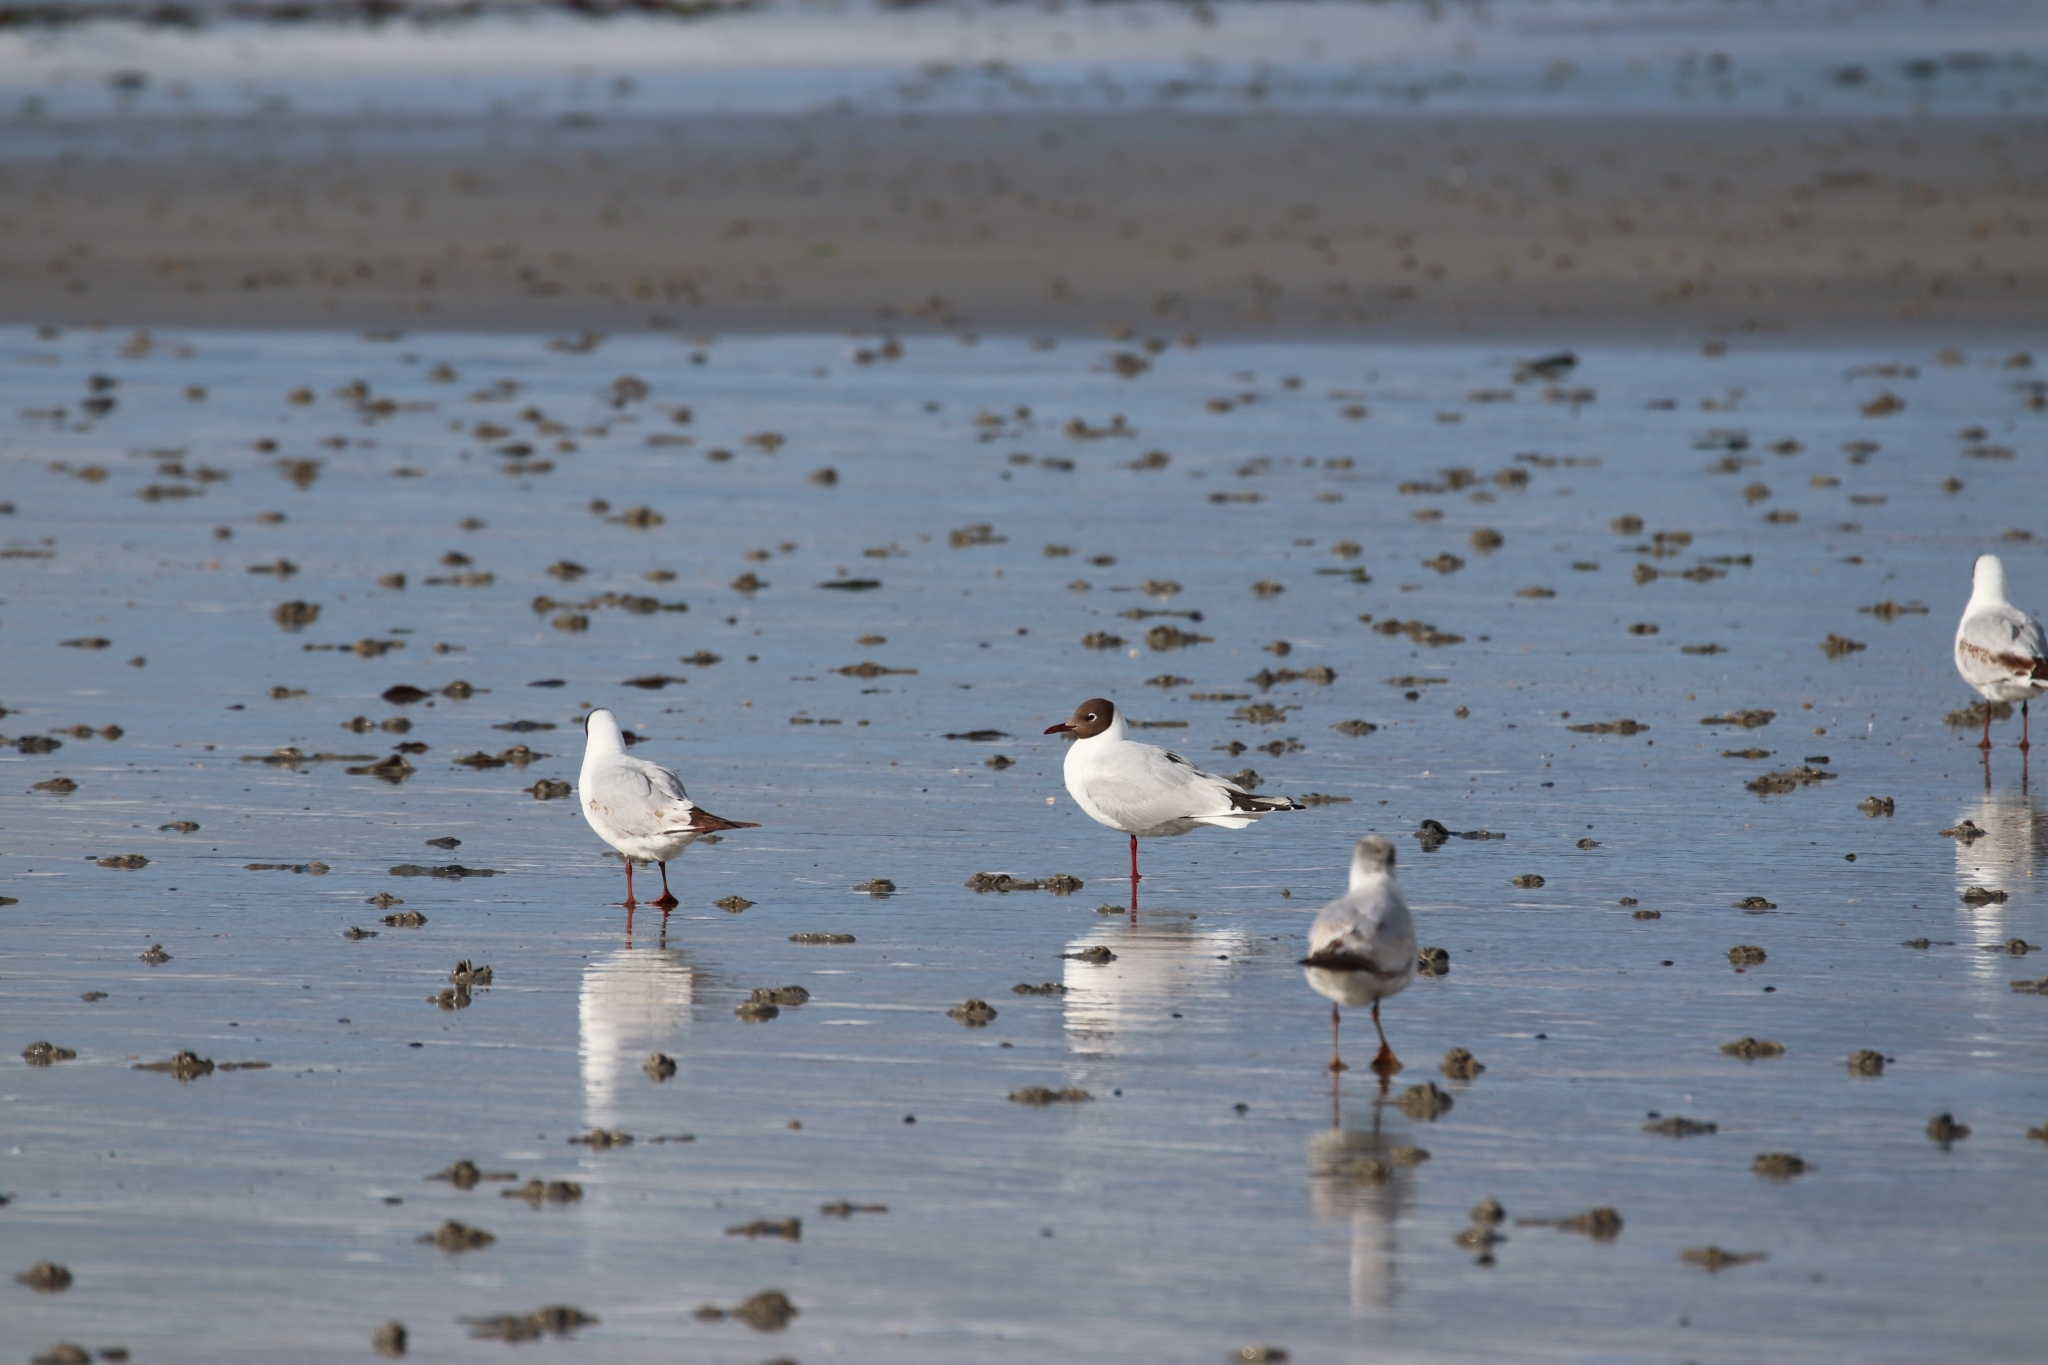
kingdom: Animalia
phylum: Chordata
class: Aves
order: Charadriiformes
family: Laridae
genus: Chroicocephalus
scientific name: Chroicocephalus ridibundus
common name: Black-headed gull
